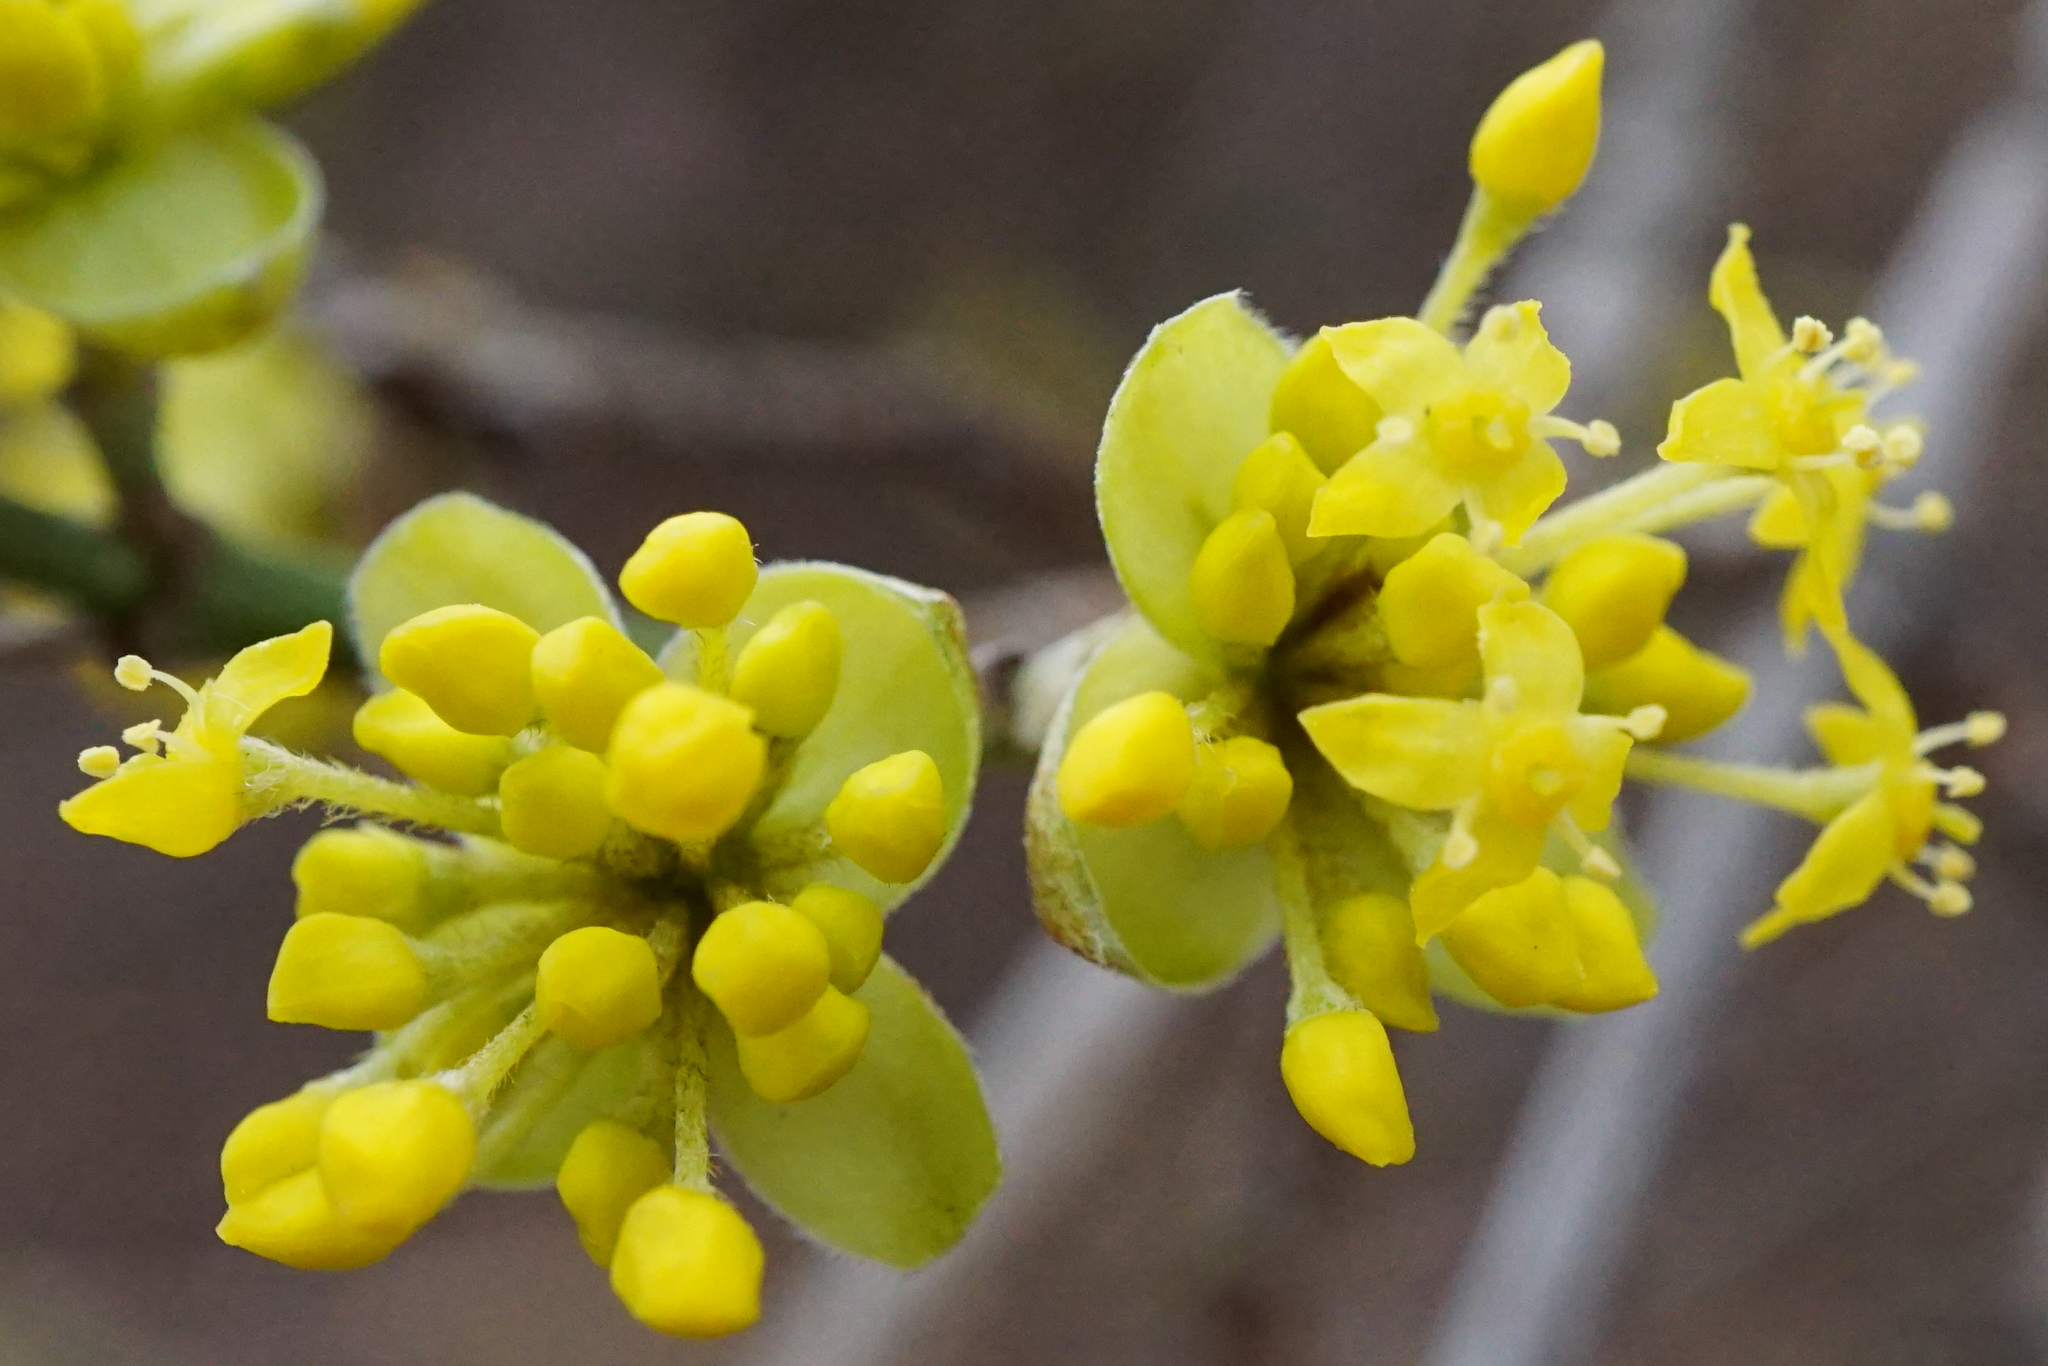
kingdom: Plantae
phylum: Tracheophyta
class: Magnoliopsida
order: Cornales
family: Cornaceae
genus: Cornus
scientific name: Cornus mas
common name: Cornelian-cherry
